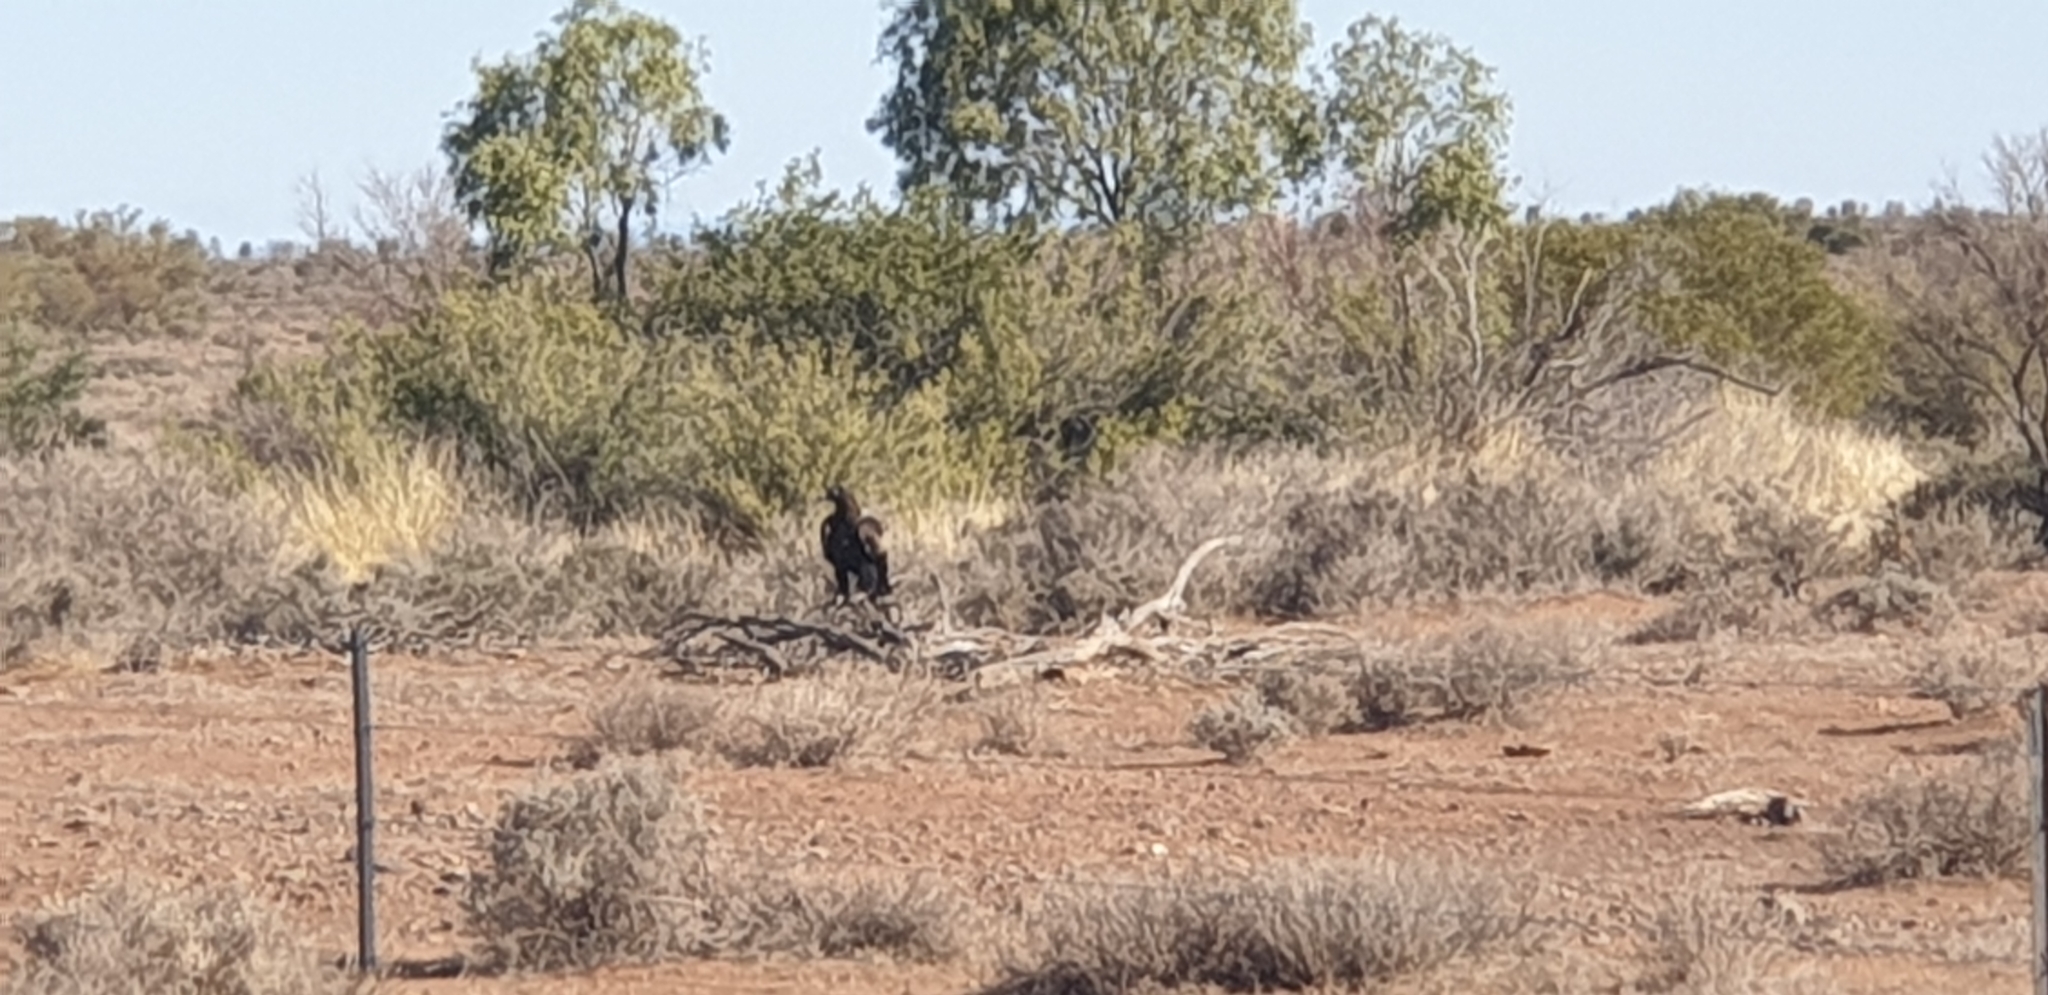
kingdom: Animalia
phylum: Chordata
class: Aves
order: Accipitriformes
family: Accipitridae
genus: Aquila
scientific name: Aquila audax
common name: Wedge-tailed eagle
